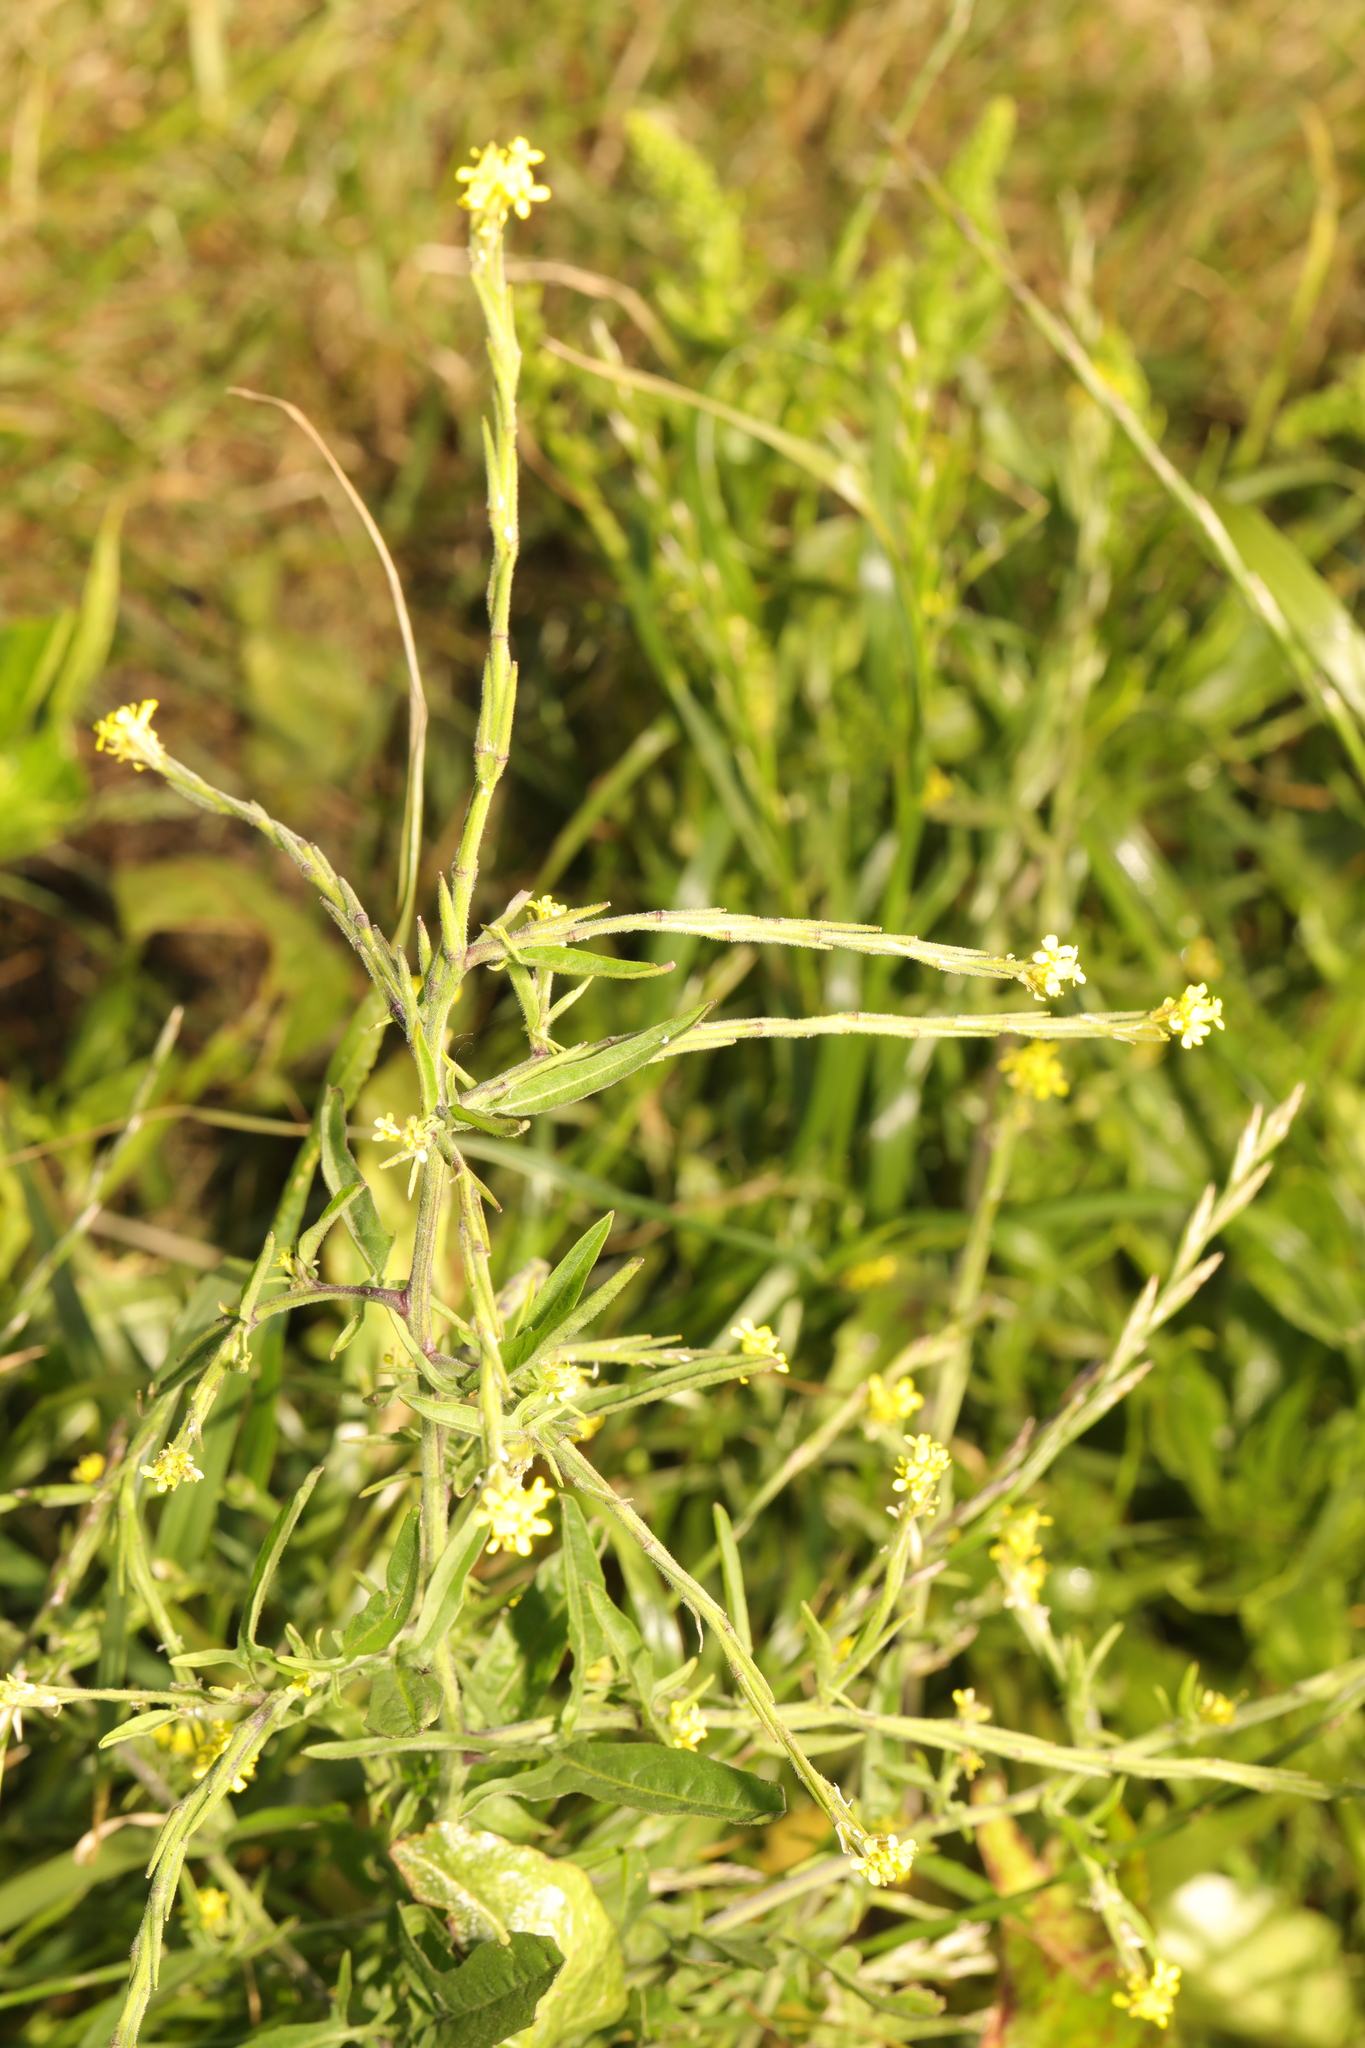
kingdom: Plantae
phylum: Tracheophyta
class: Magnoliopsida
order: Brassicales
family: Brassicaceae
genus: Sisymbrium
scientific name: Sisymbrium officinale
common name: Hedge mustard
